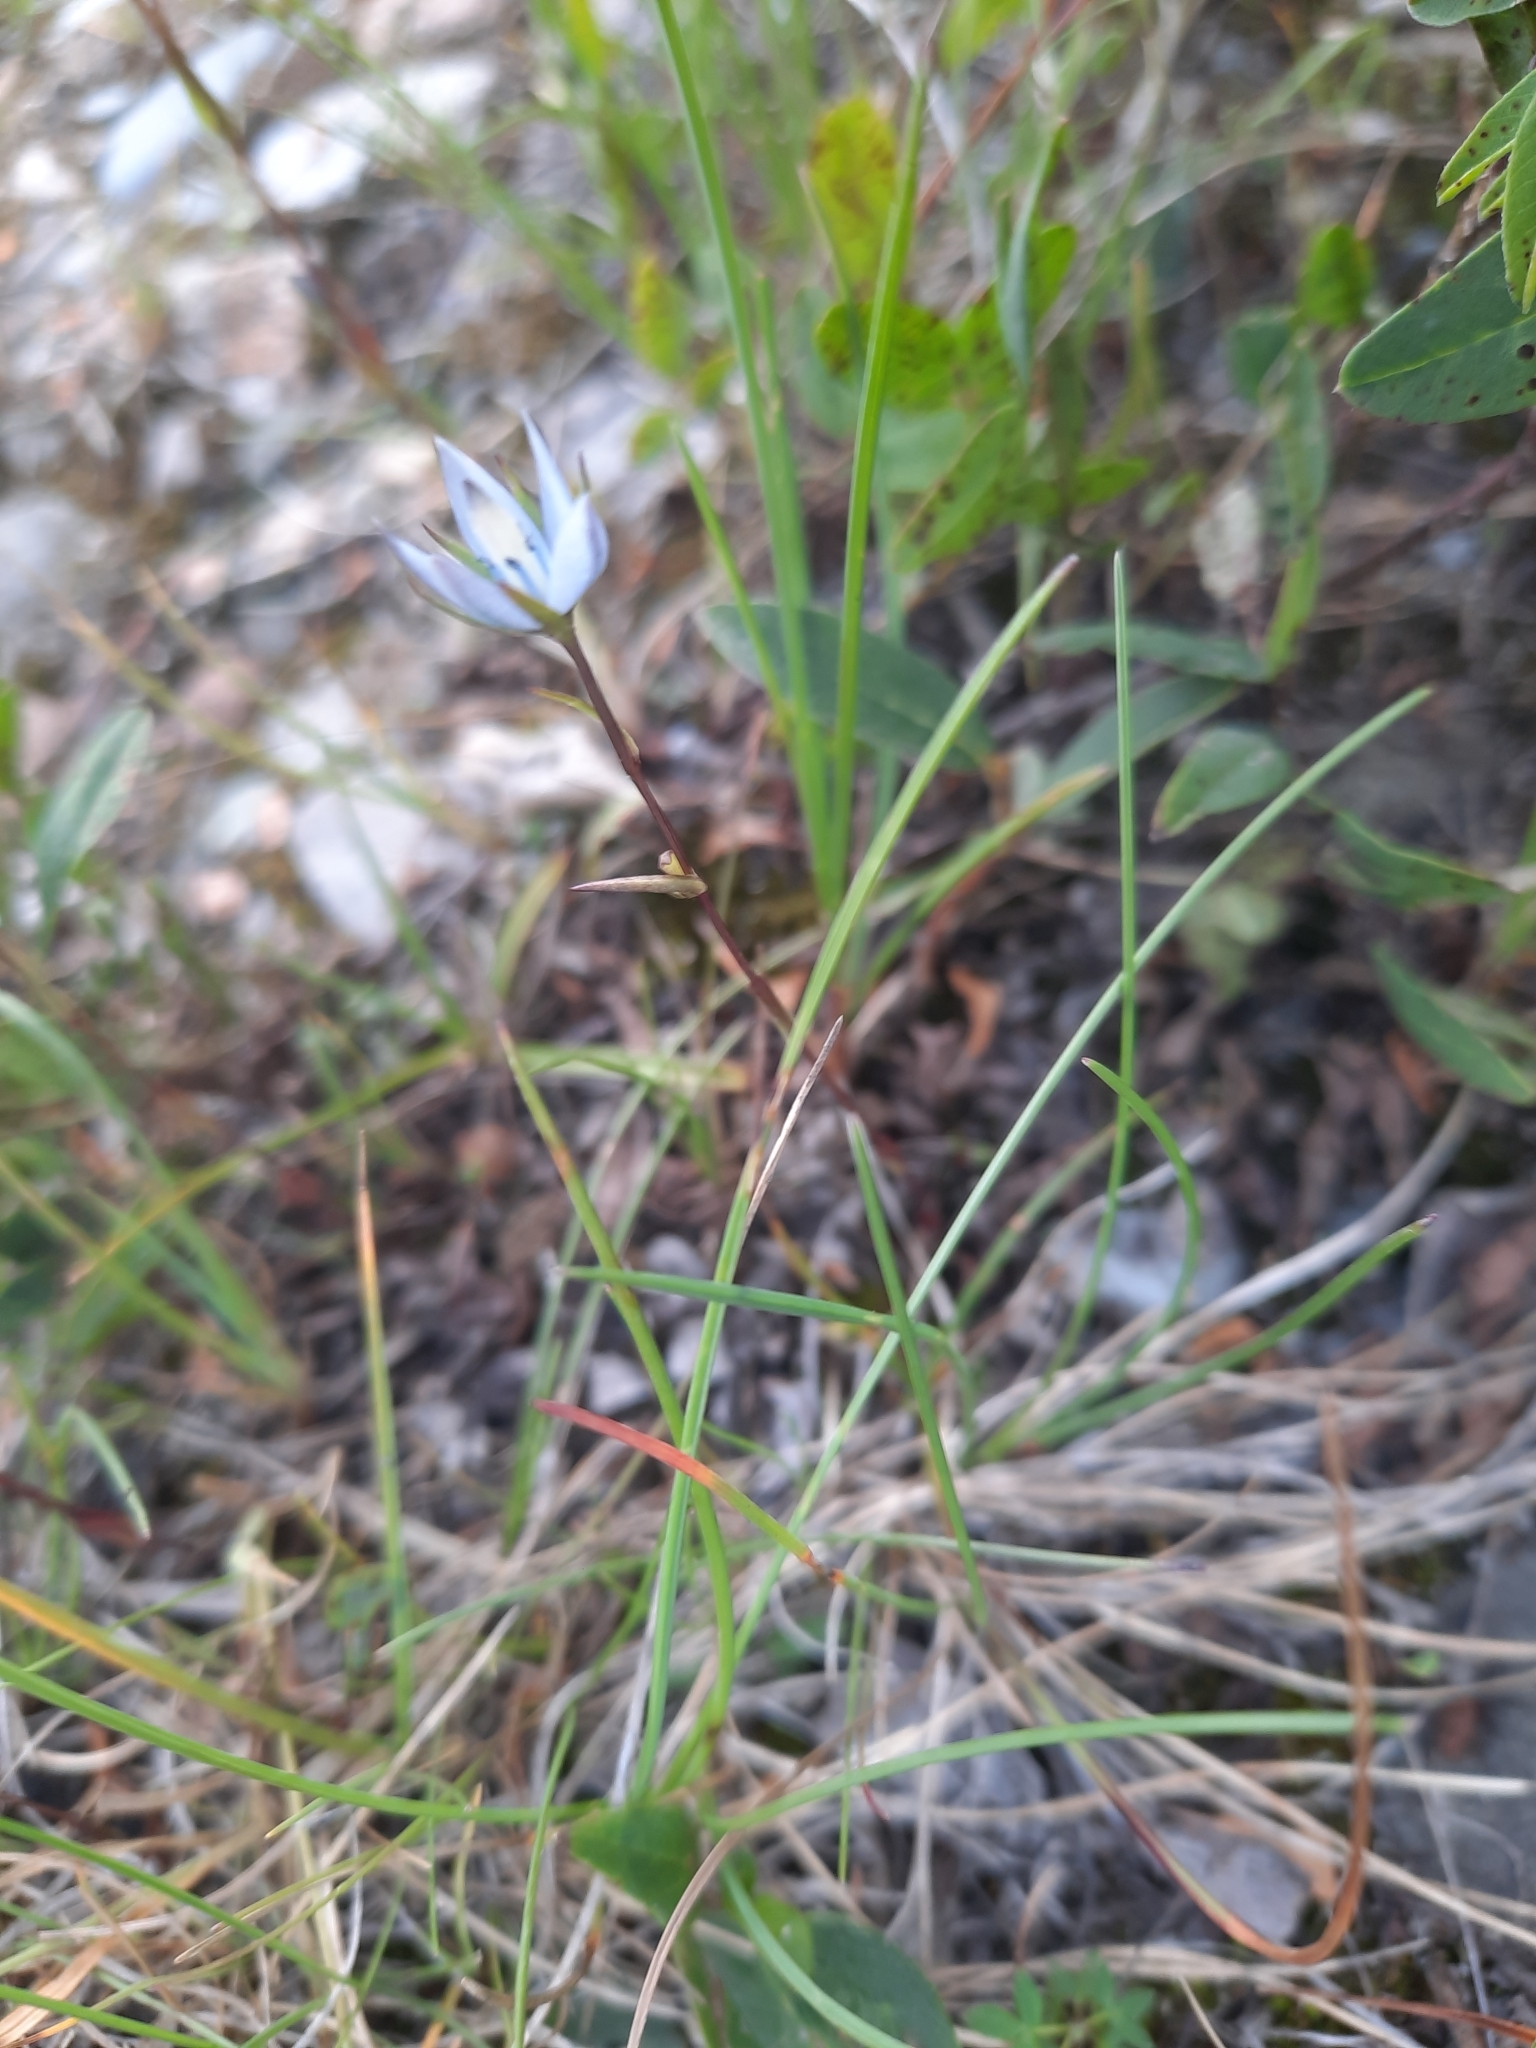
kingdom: Plantae
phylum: Tracheophyta
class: Magnoliopsida
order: Gentianales
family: Gentianaceae
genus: Lomatogonium
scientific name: Lomatogonium rotatum
